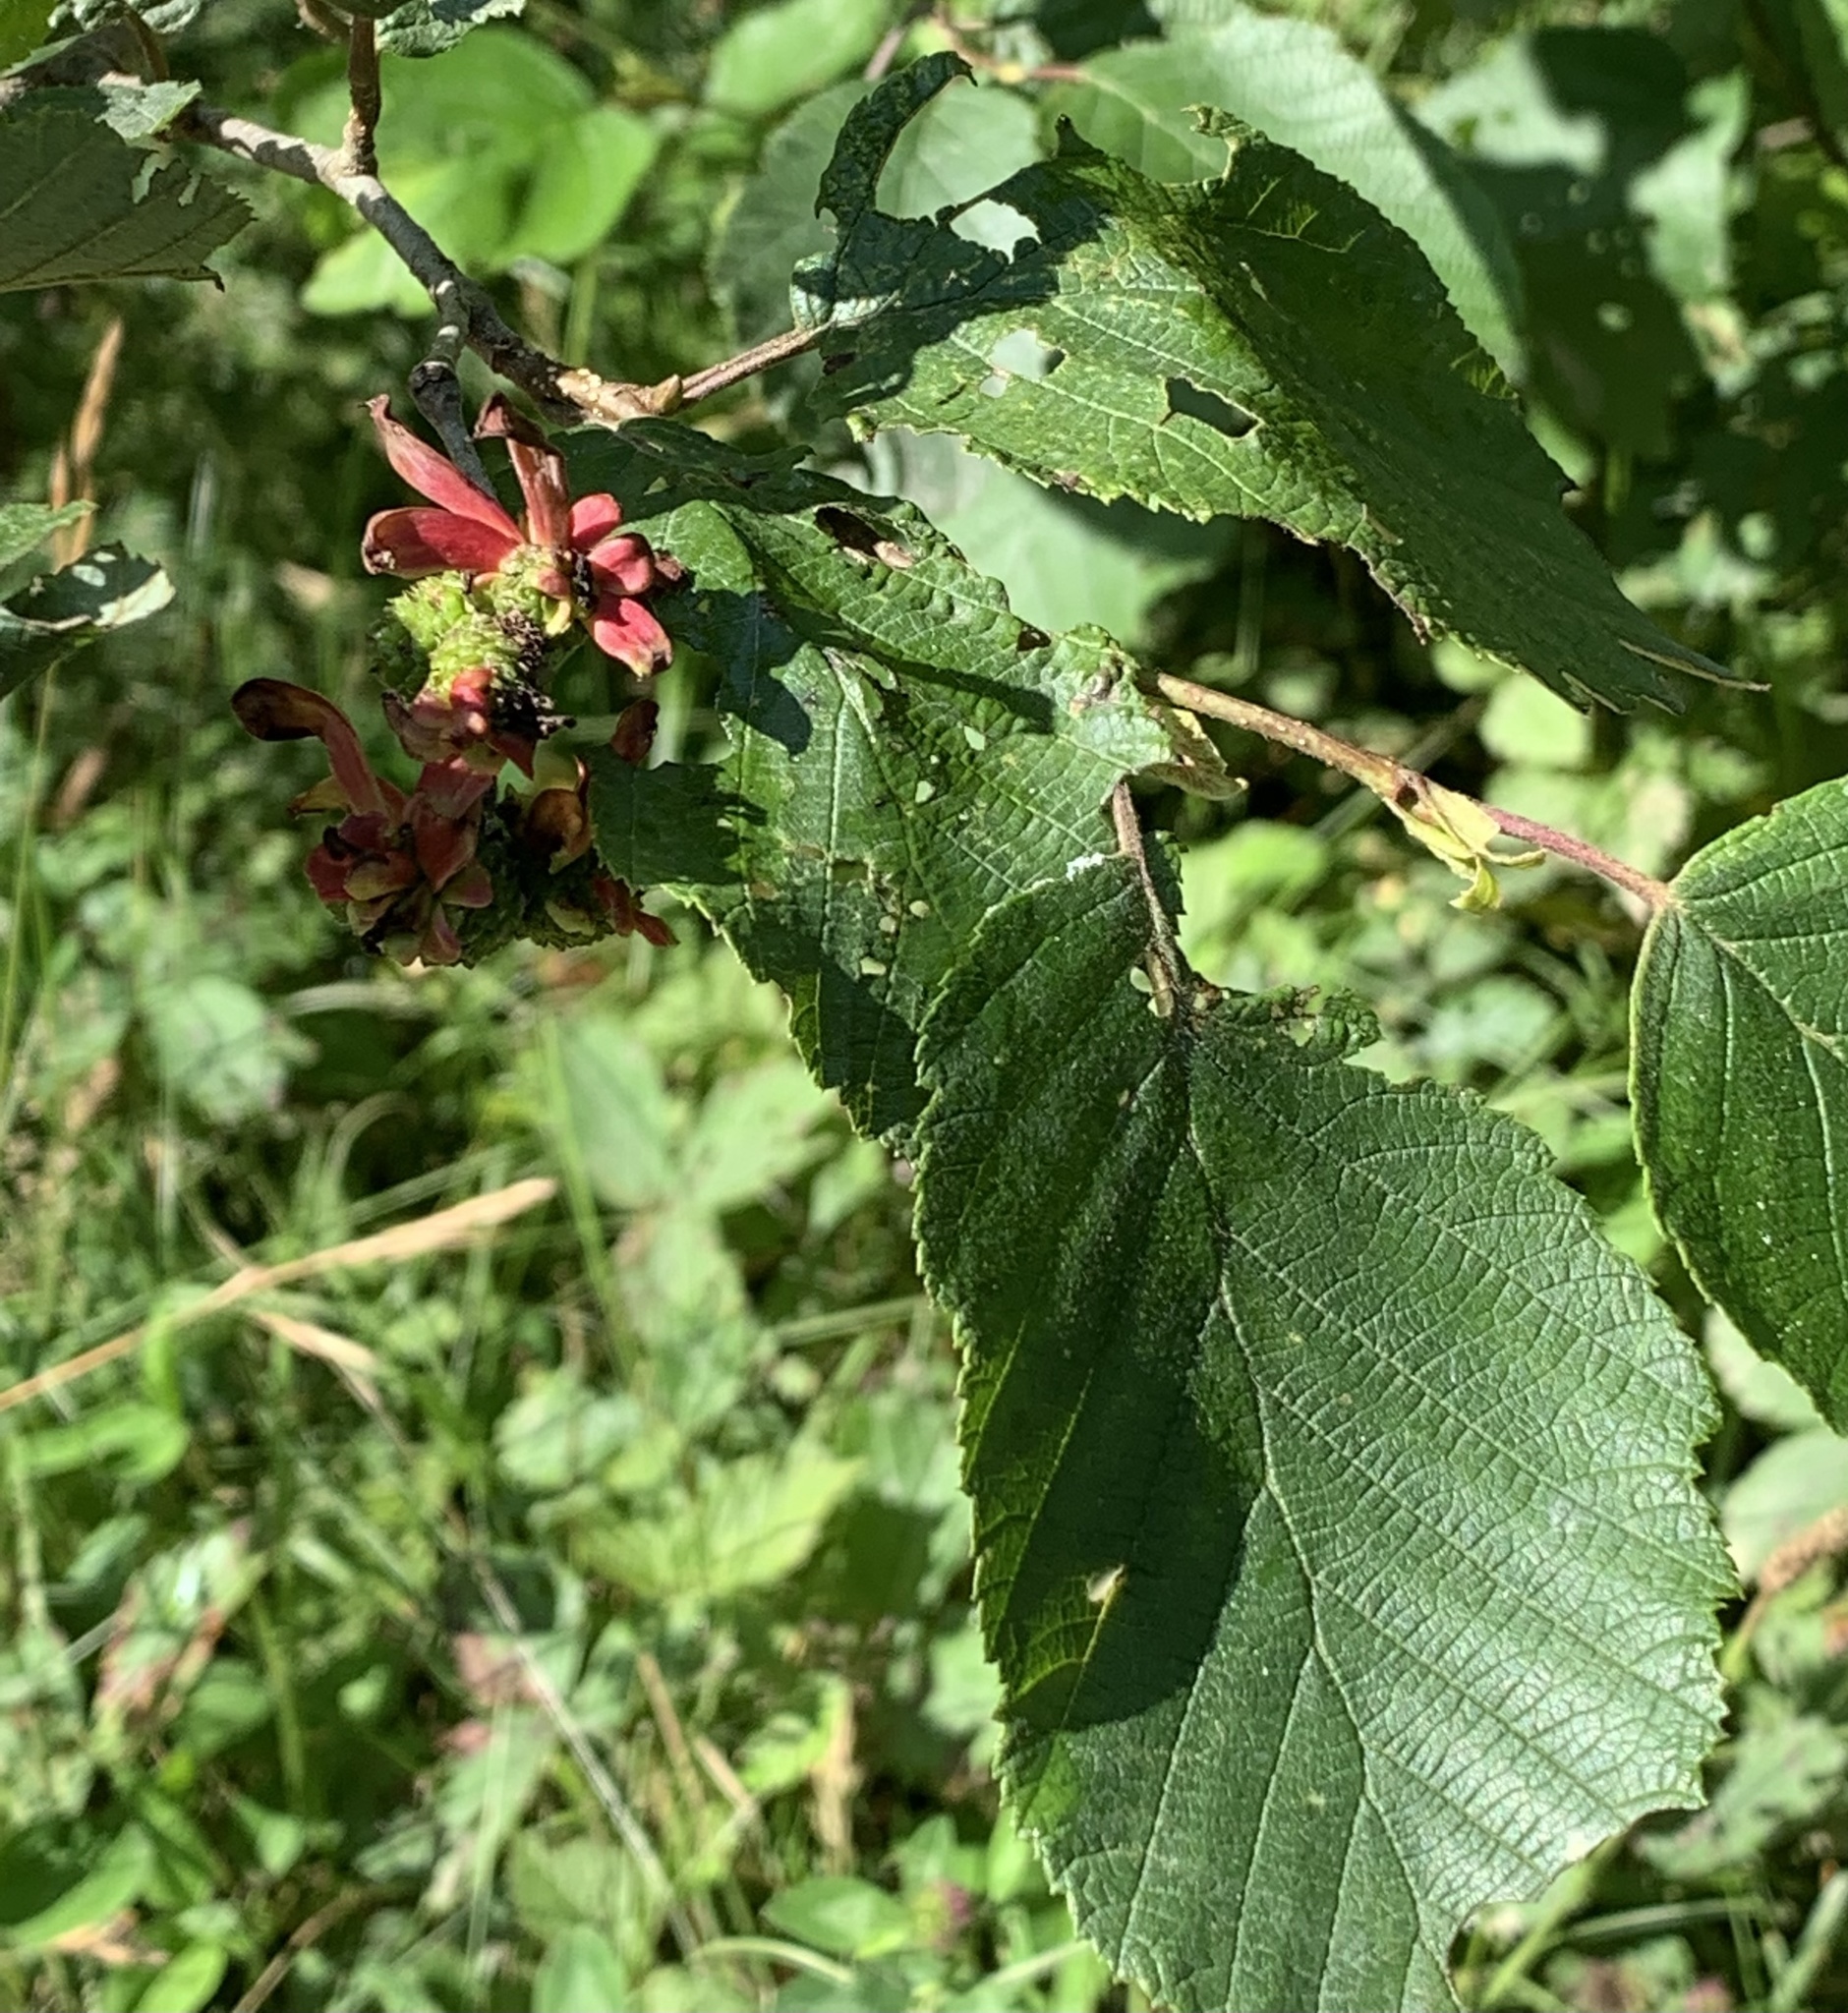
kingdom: Fungi
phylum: Ascomycota
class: Taphrinomycetes
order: Taphrinales
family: Taphrinaceae
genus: Taphrina
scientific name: Taphrina robinsoniana
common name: Eastern american alder tongue gall fungus
